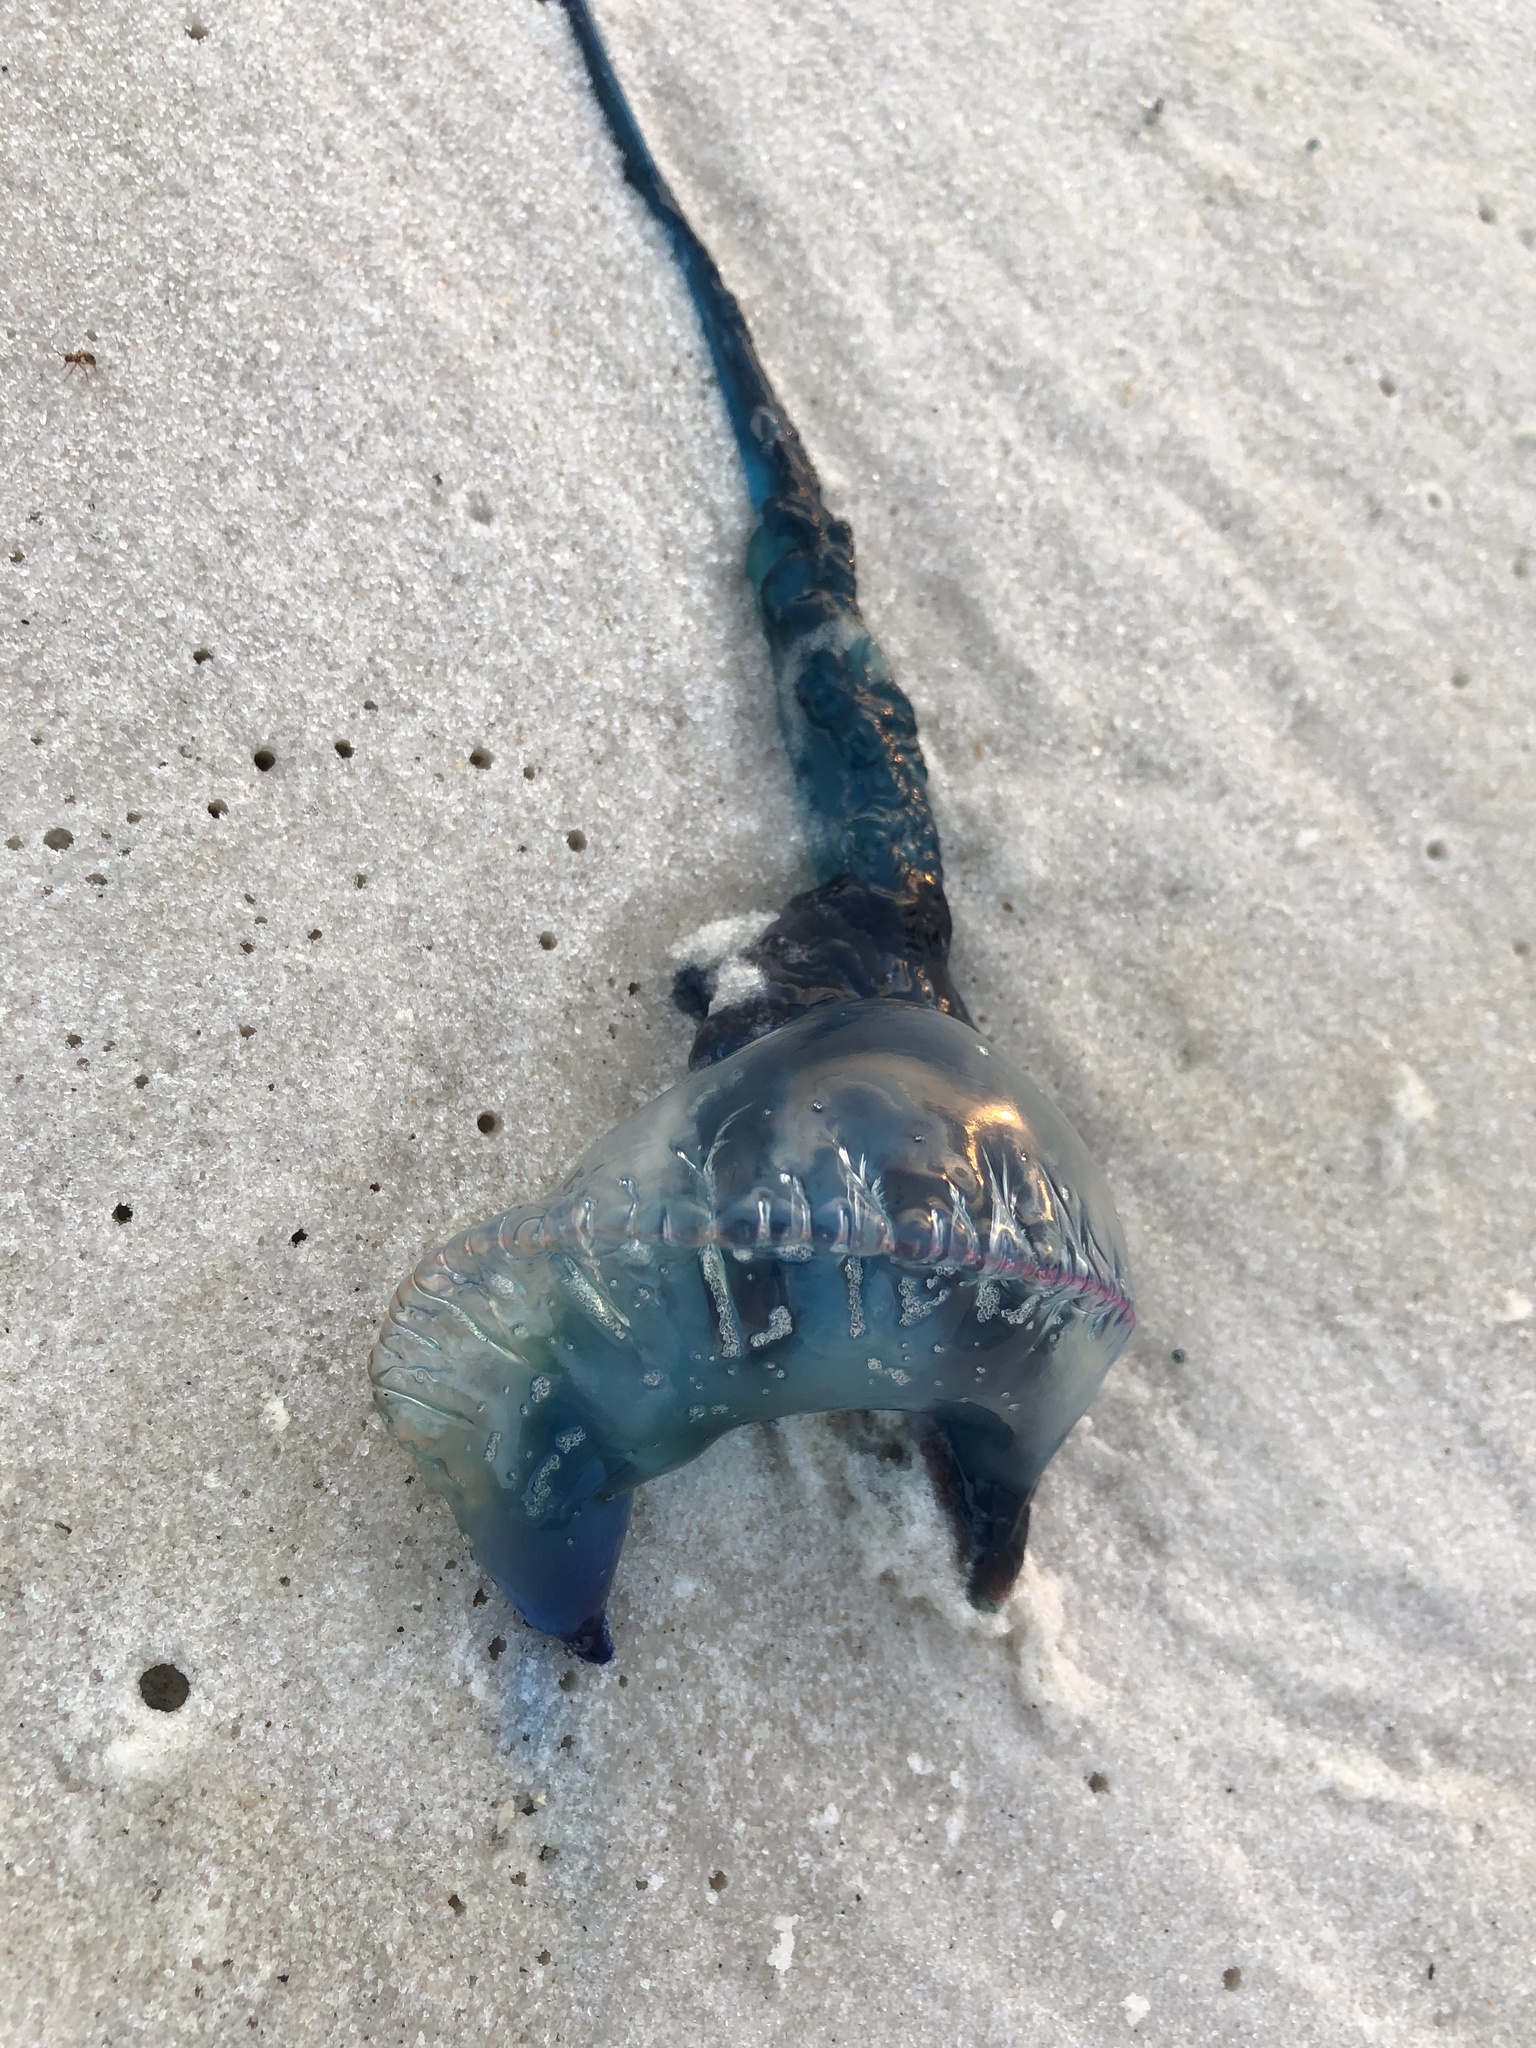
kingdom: Animalia
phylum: Cnidaria
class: Hydrozoa
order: Siphonophorae
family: Physaliidae
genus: Physalia
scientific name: Physalia physalis
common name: Portuguese man-of-war
